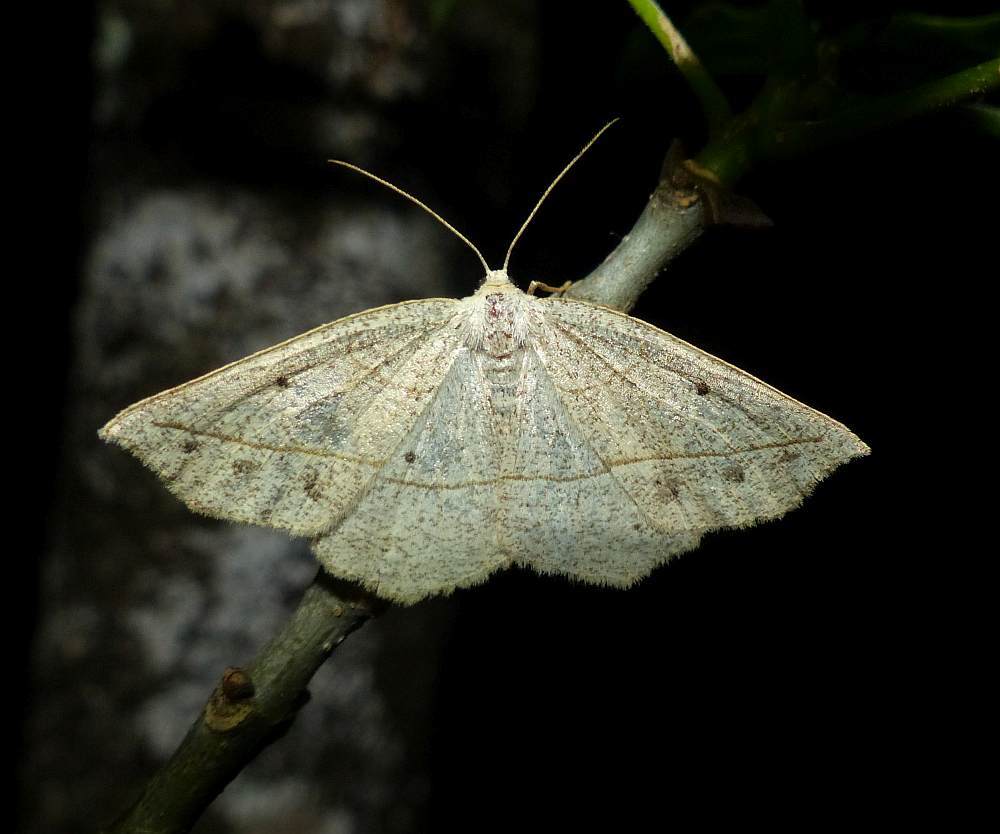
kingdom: Animalia
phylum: Arthropoda
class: Insecta
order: Lepidoptera
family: Geometridae
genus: Eusarca
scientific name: Eusarca confusaria
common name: Confused eusarca
